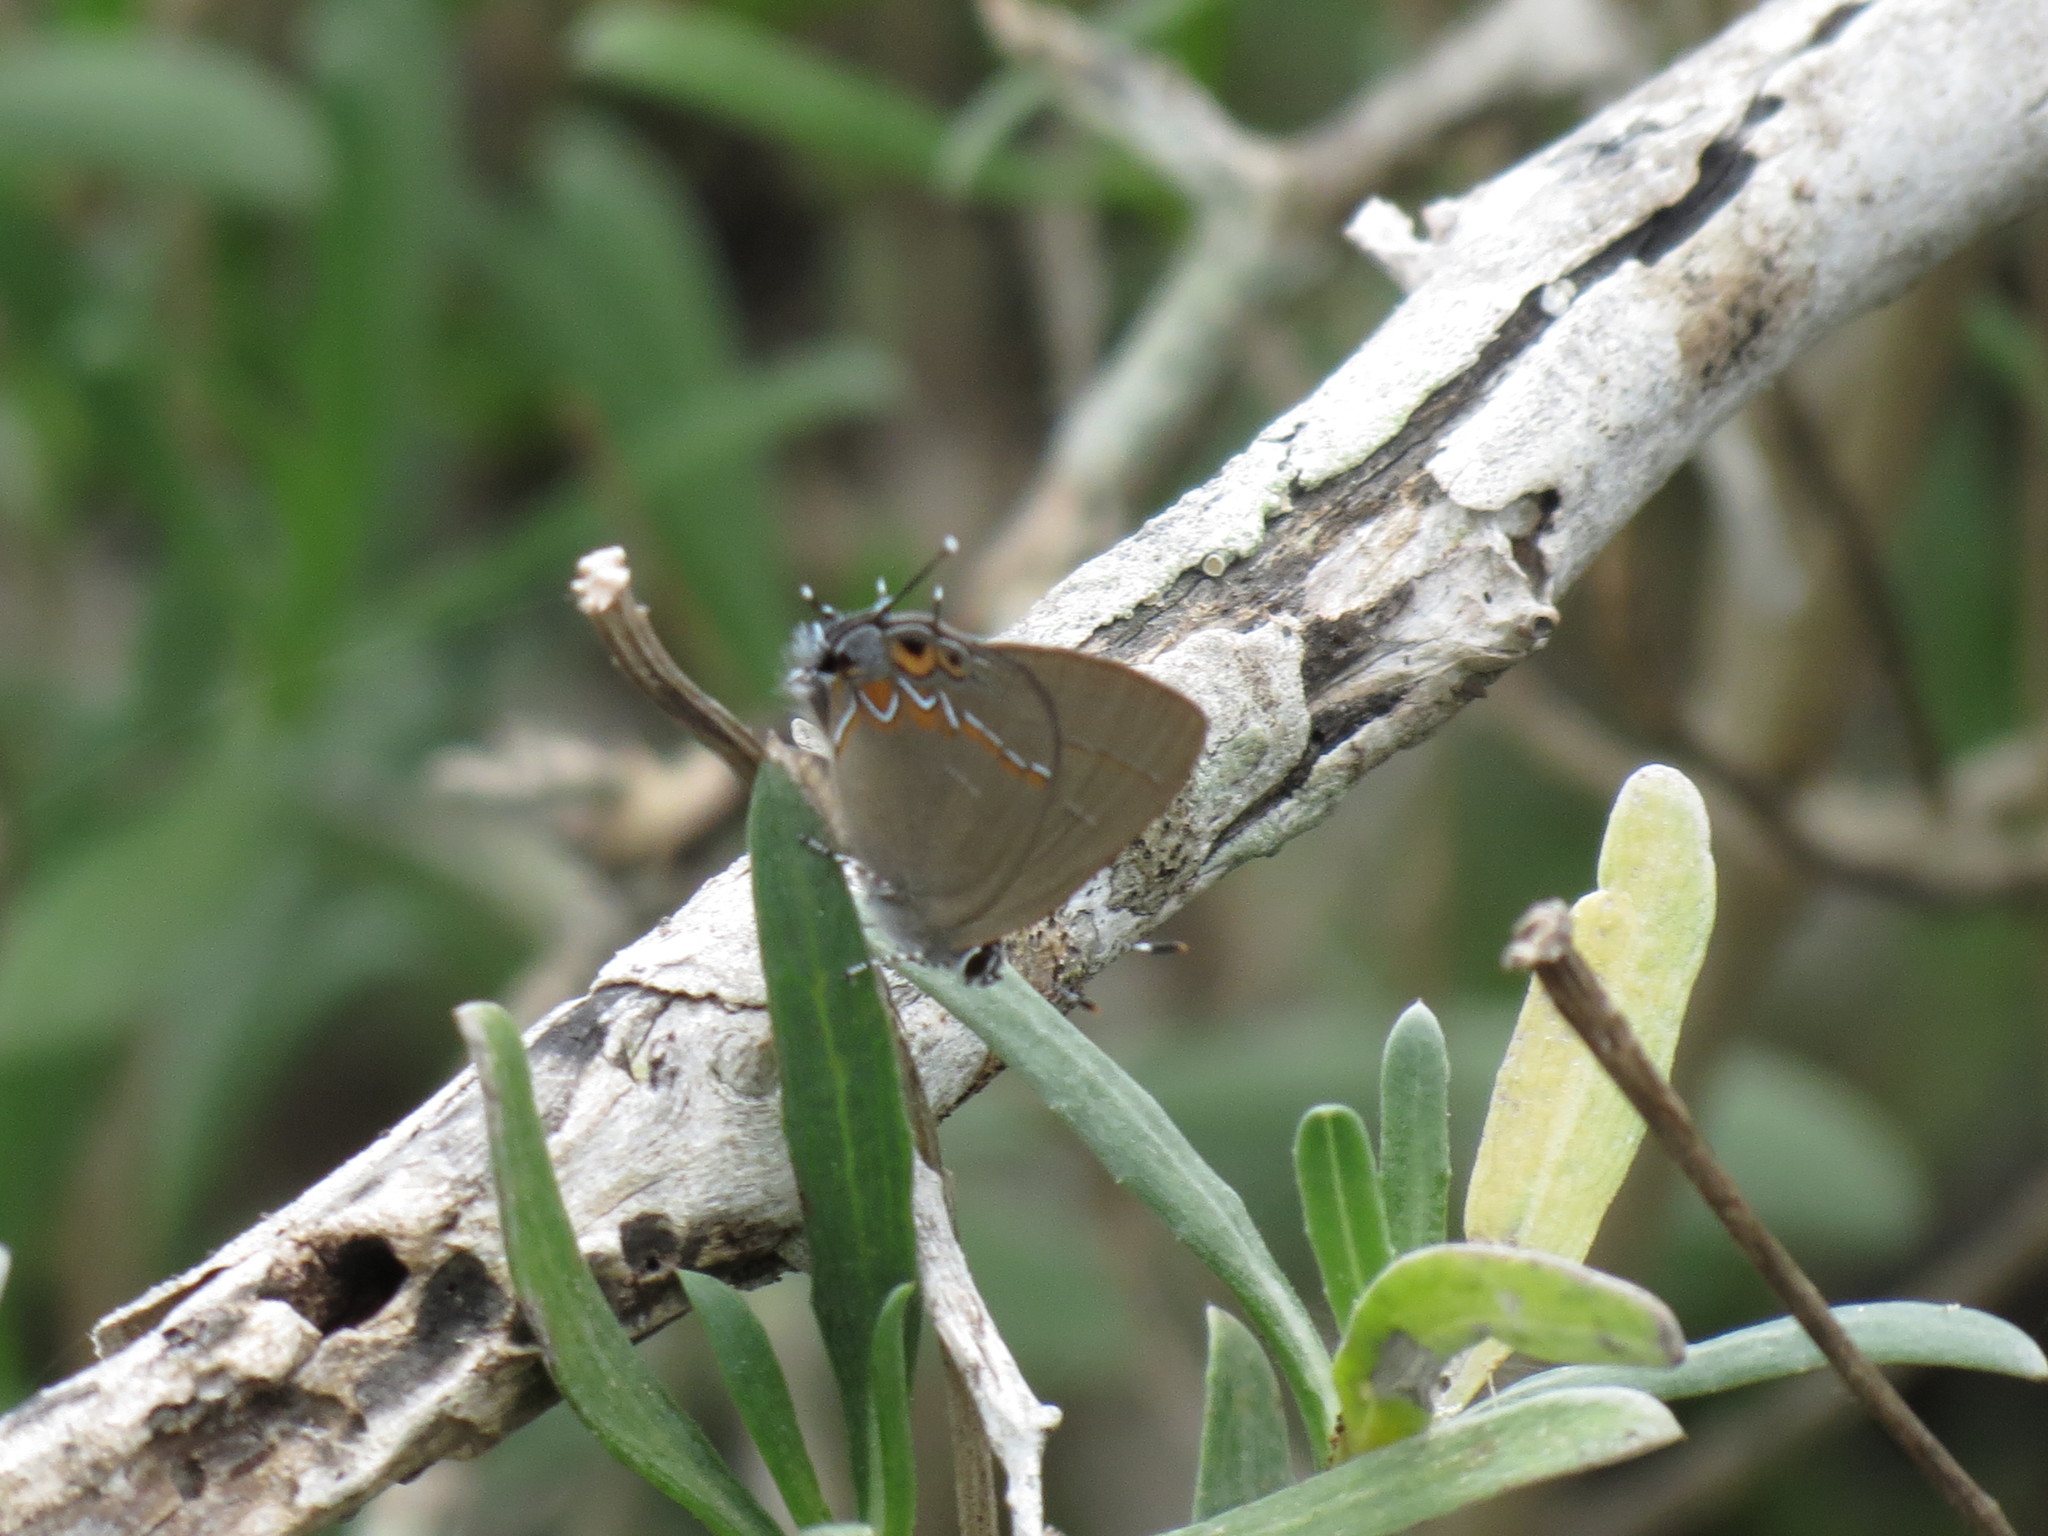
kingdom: Animalia
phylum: Arthropoda
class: Insecta
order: Lepidoptera
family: Lycaenidae
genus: Calycopis
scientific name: Calycopis isobeon
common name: Dusky-blue groundstreak
